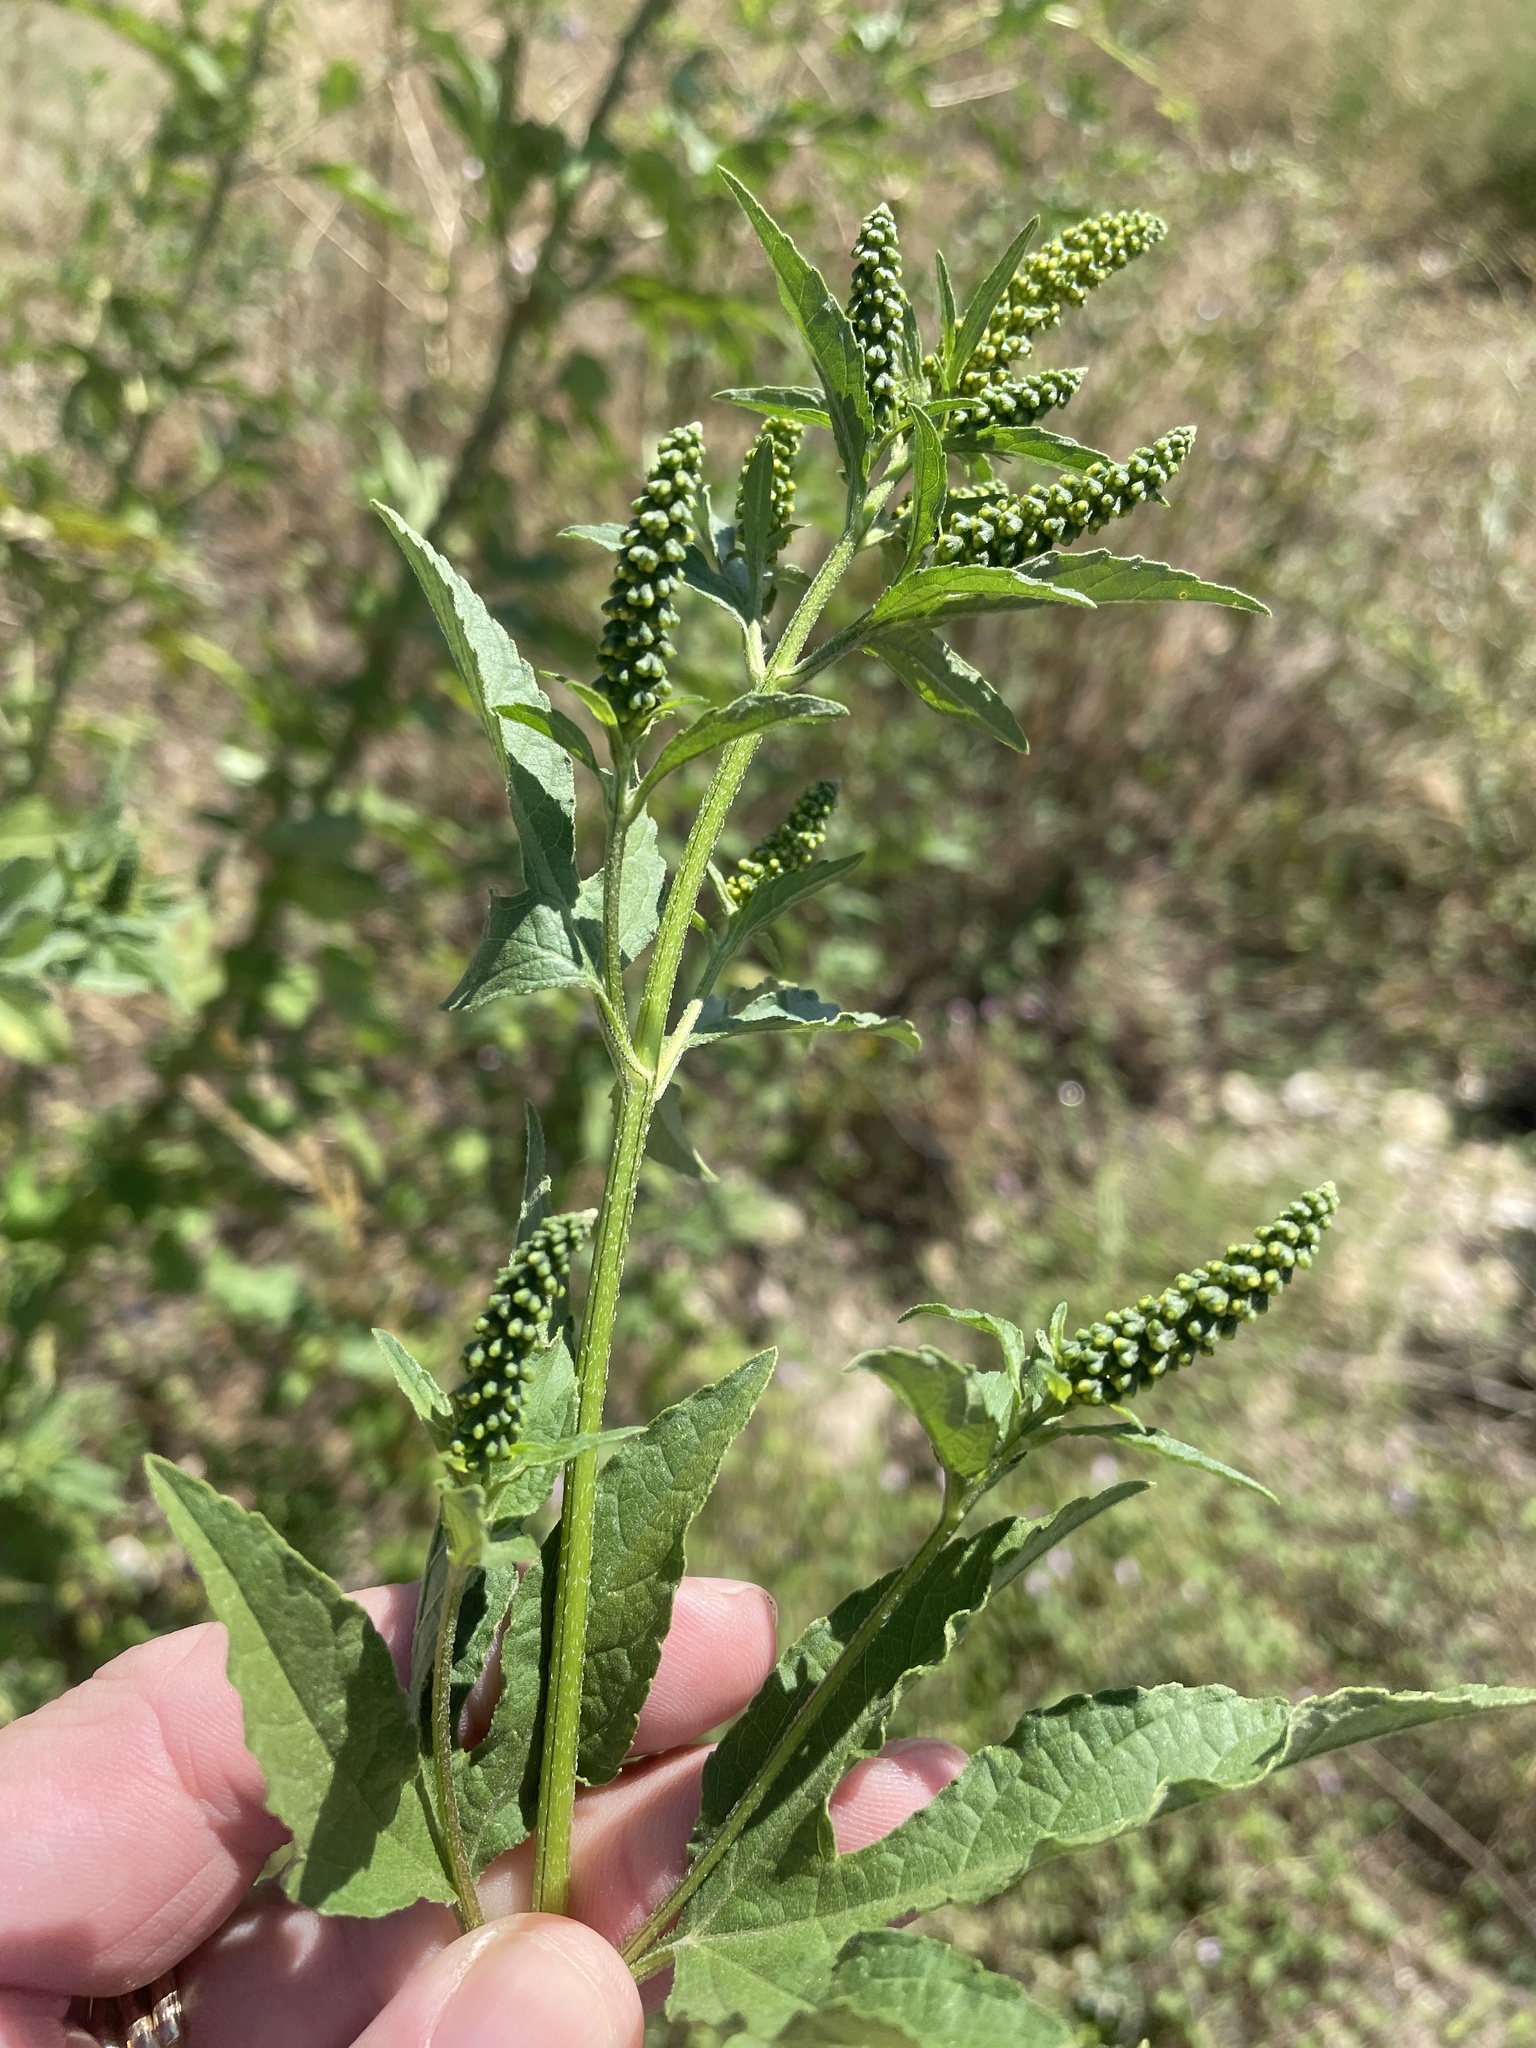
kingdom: Plantae
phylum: Tracheophyta
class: Magnoliopsida
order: Asterales
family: Asteraceae
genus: Ambrosia
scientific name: Ambrosia trifida
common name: Giant ragweed
